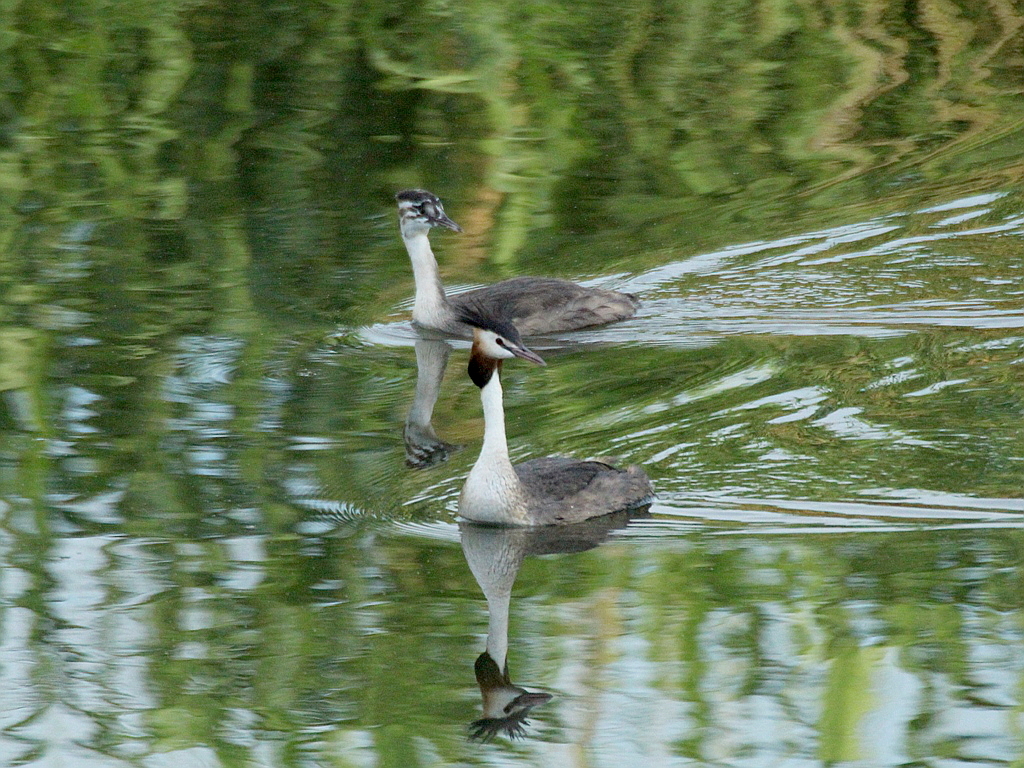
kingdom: Animalia
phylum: Chordata
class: Aves
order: Podicipediformes
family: Podicipedidae
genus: Podiceps
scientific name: Podiceps cristatus
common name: Great crested grebe
